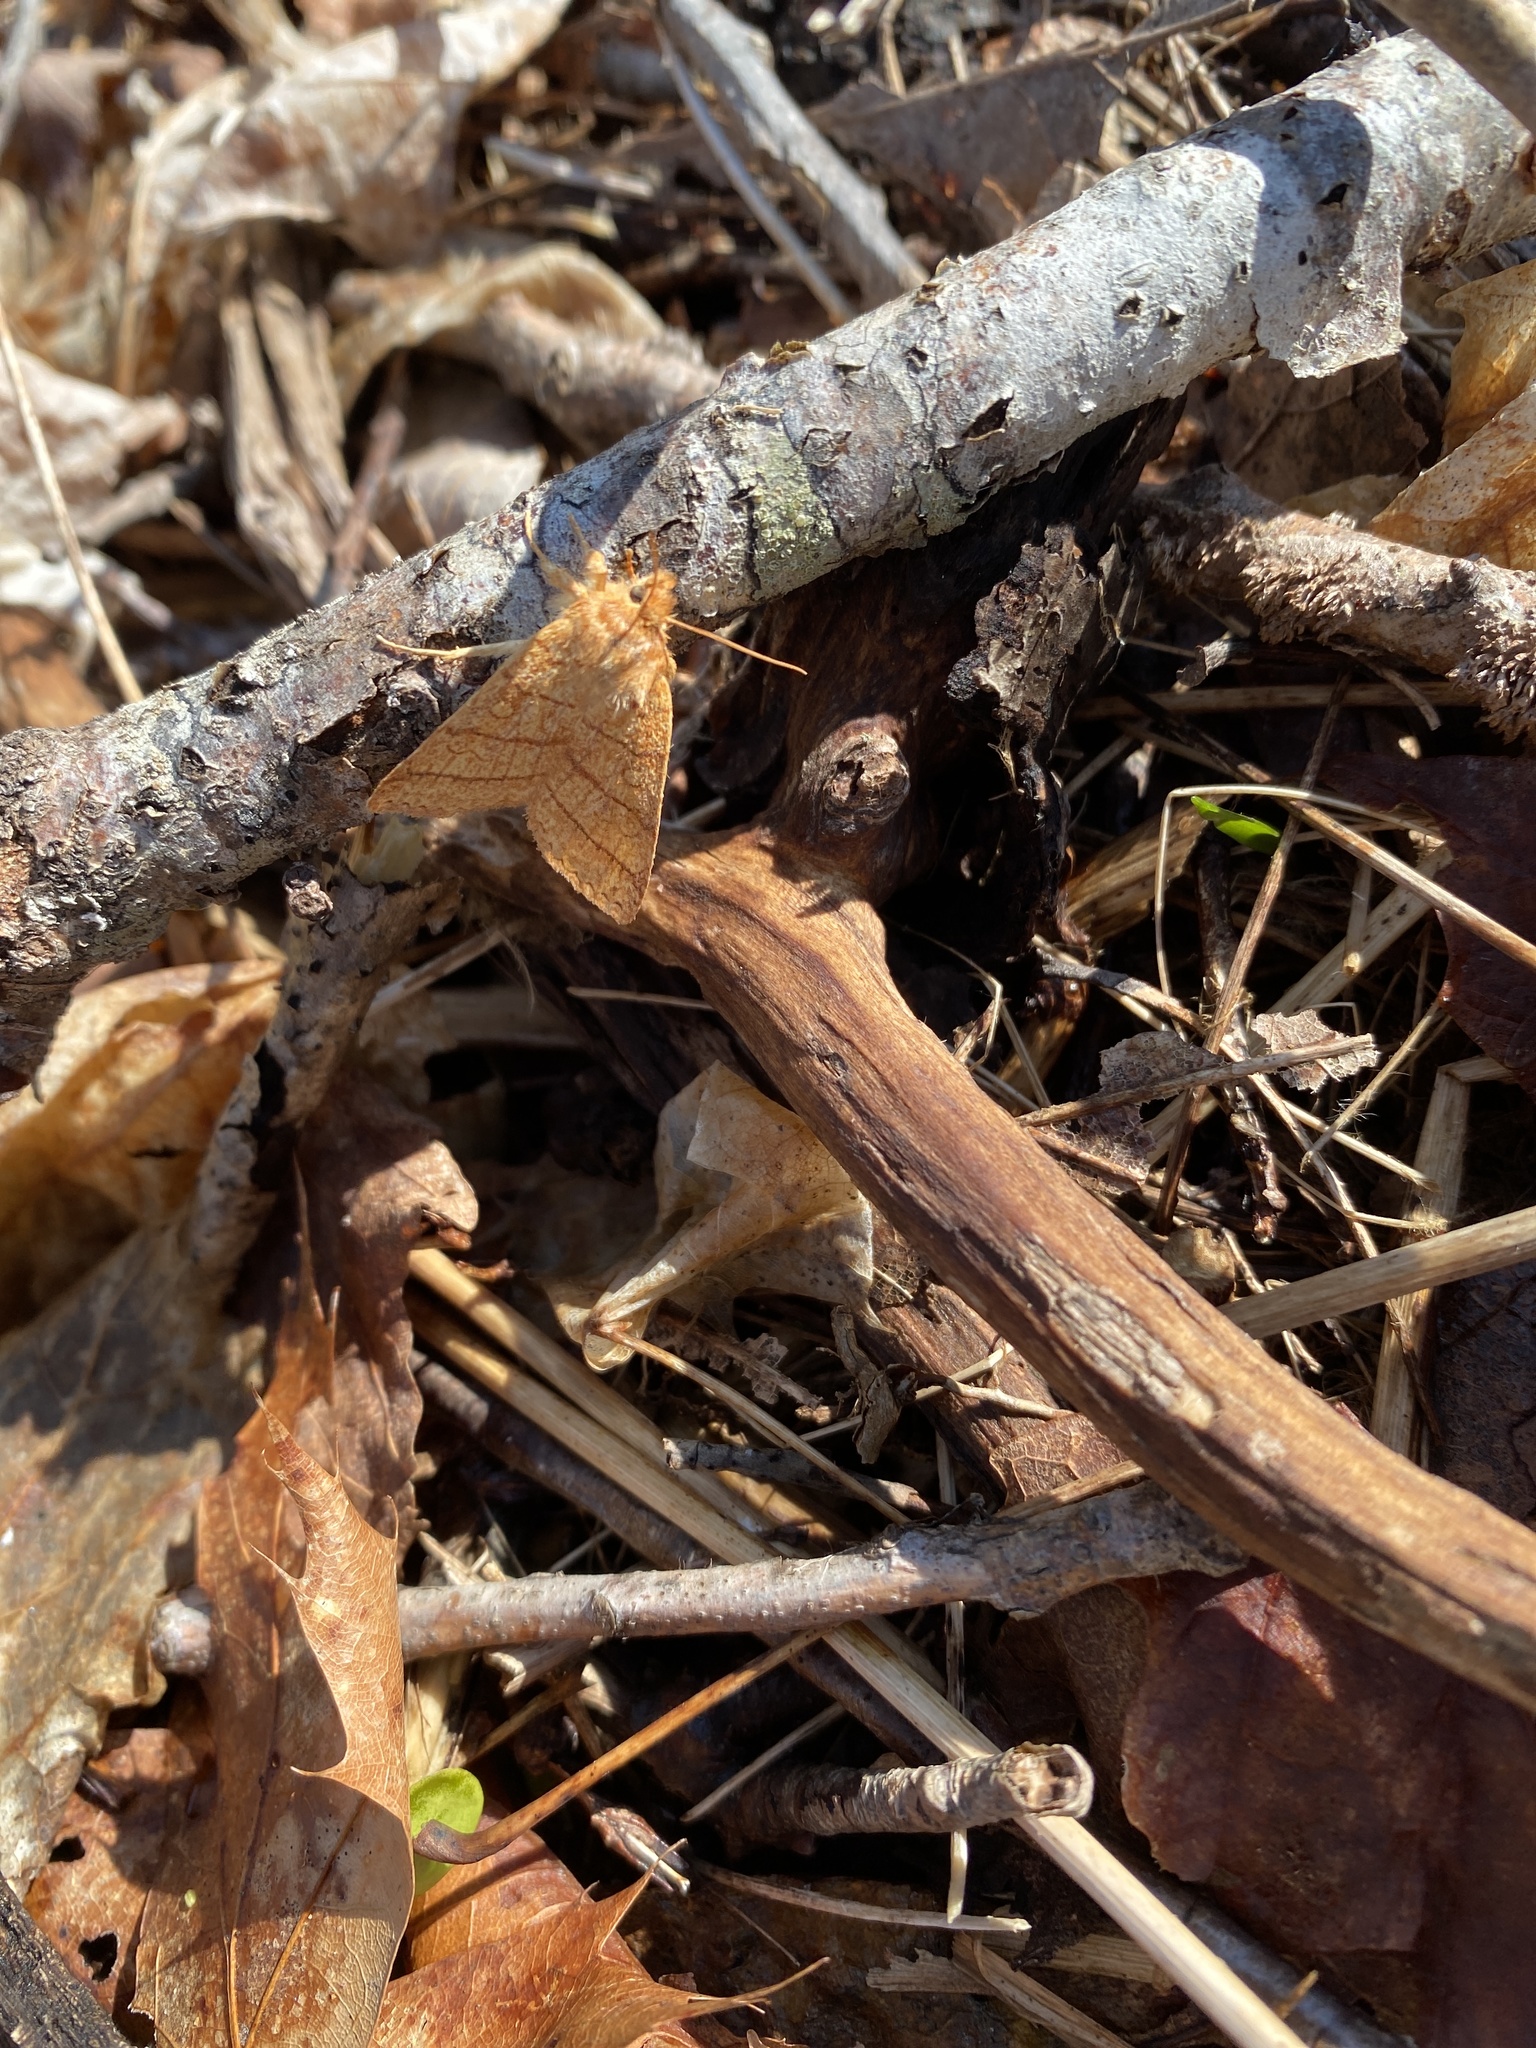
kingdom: Animalia
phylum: Arthropoda
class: Insecta
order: Lepidoptera
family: Noctuidae
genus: Pyreferra
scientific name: Pyreferra citrombra
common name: Citrine sallow
